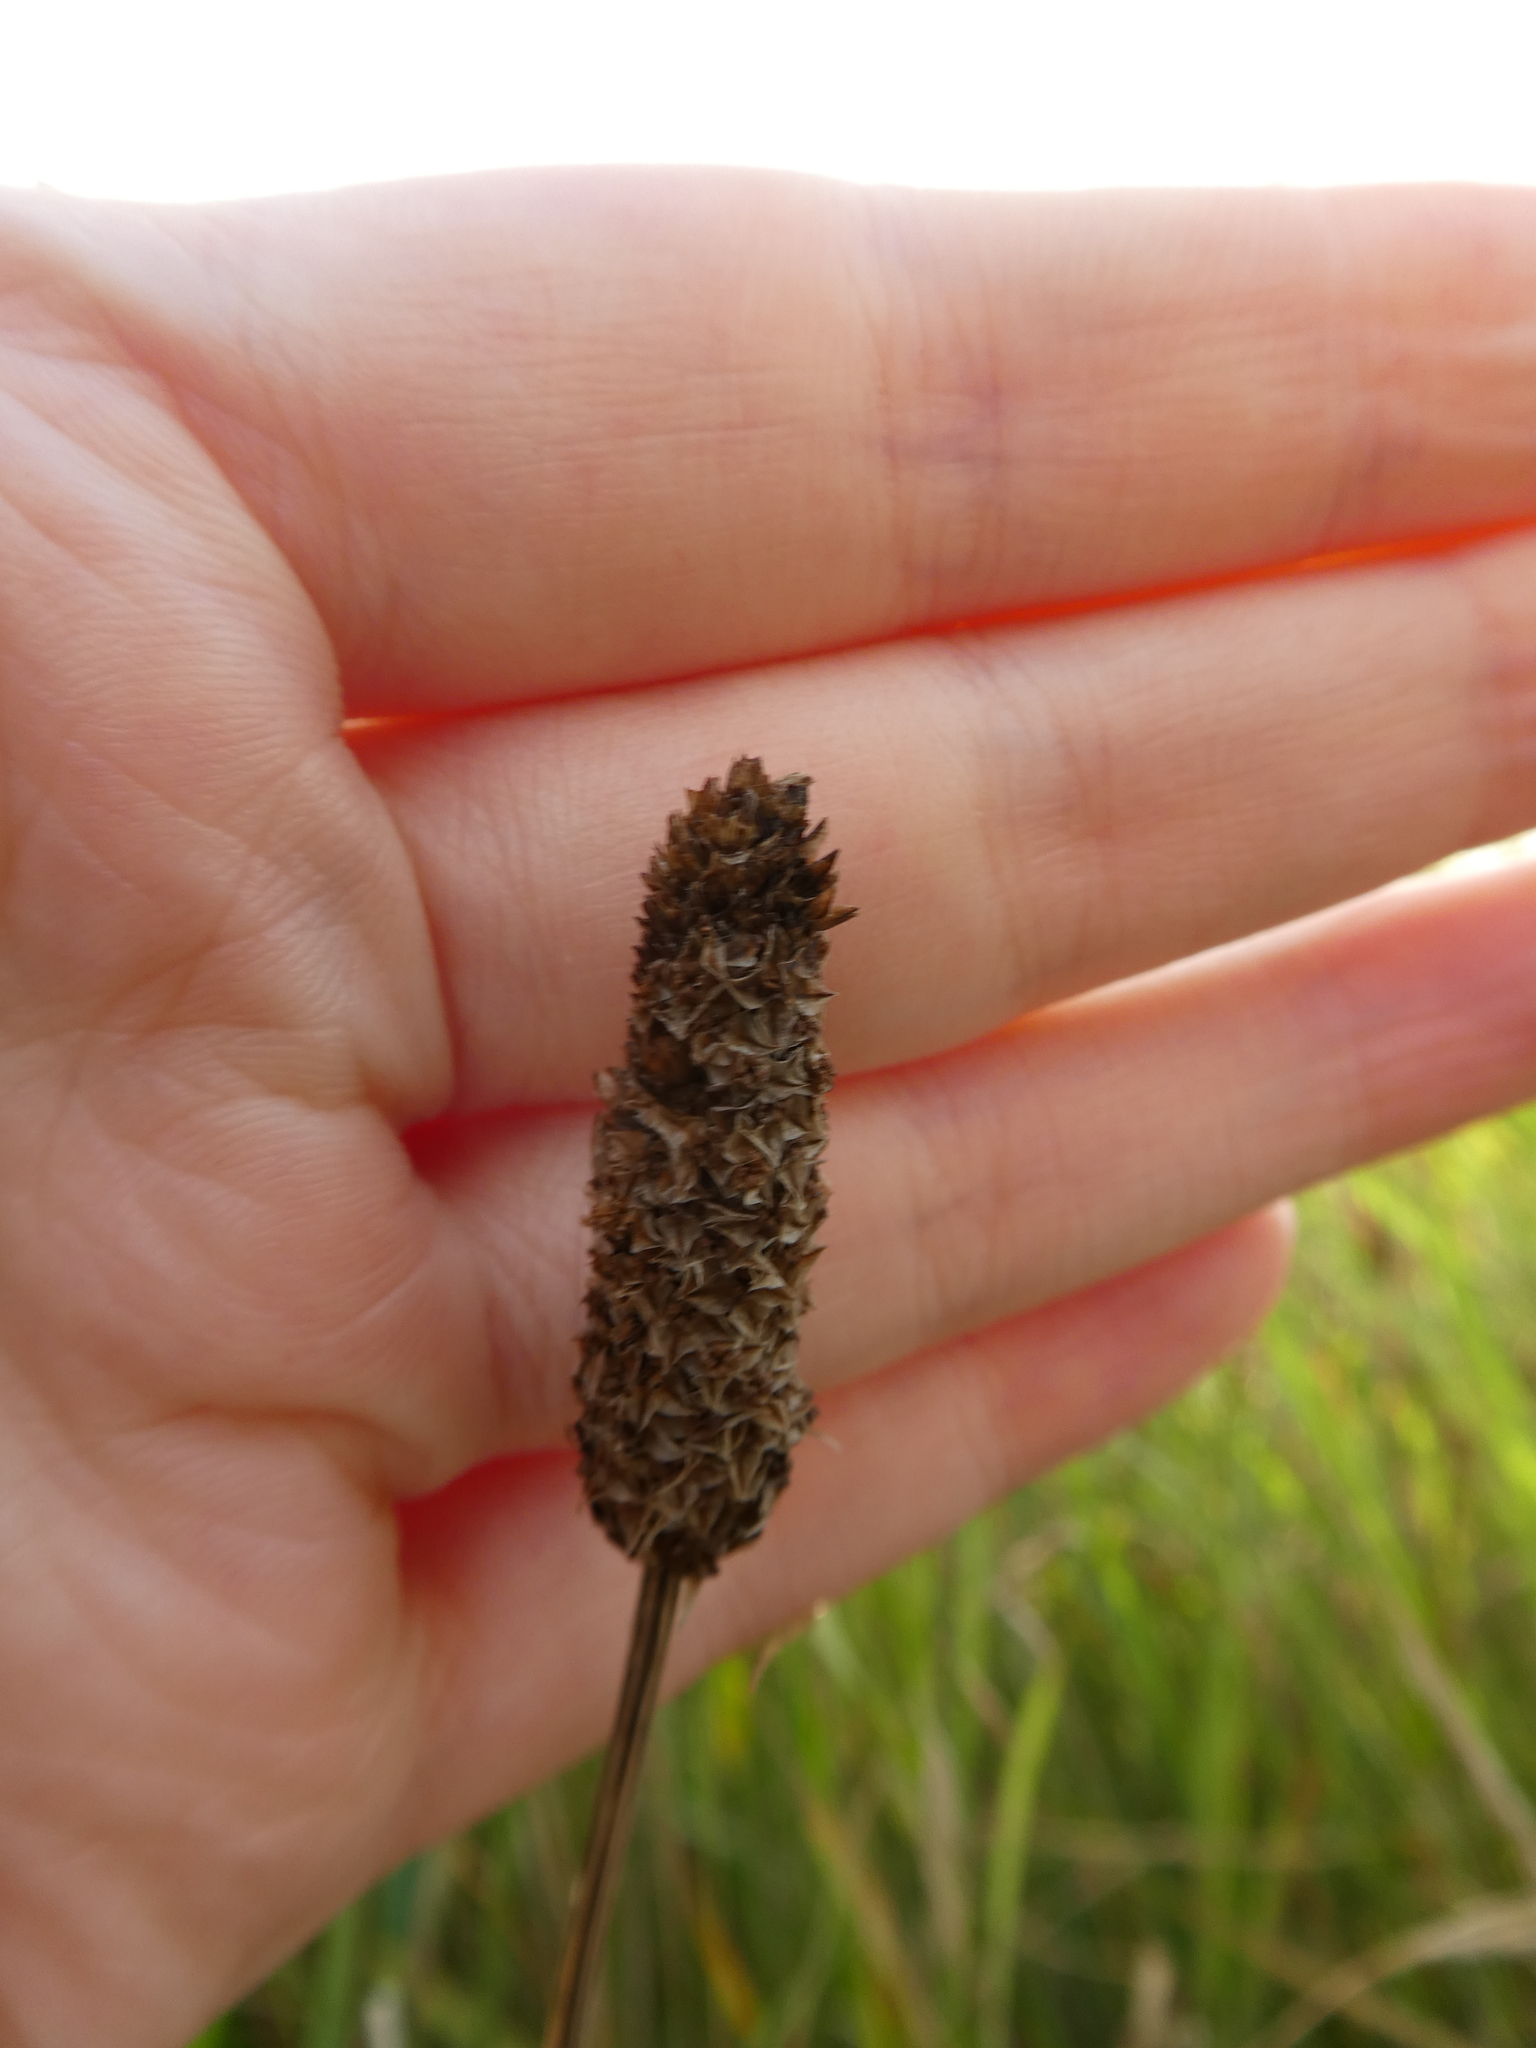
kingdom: Plantae
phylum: Tracheophyta
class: Magnoliopsida
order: Lamiales
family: Plantaginaceae
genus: Plantago
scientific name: Plantago lanceolata
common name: Ribwort plantain
